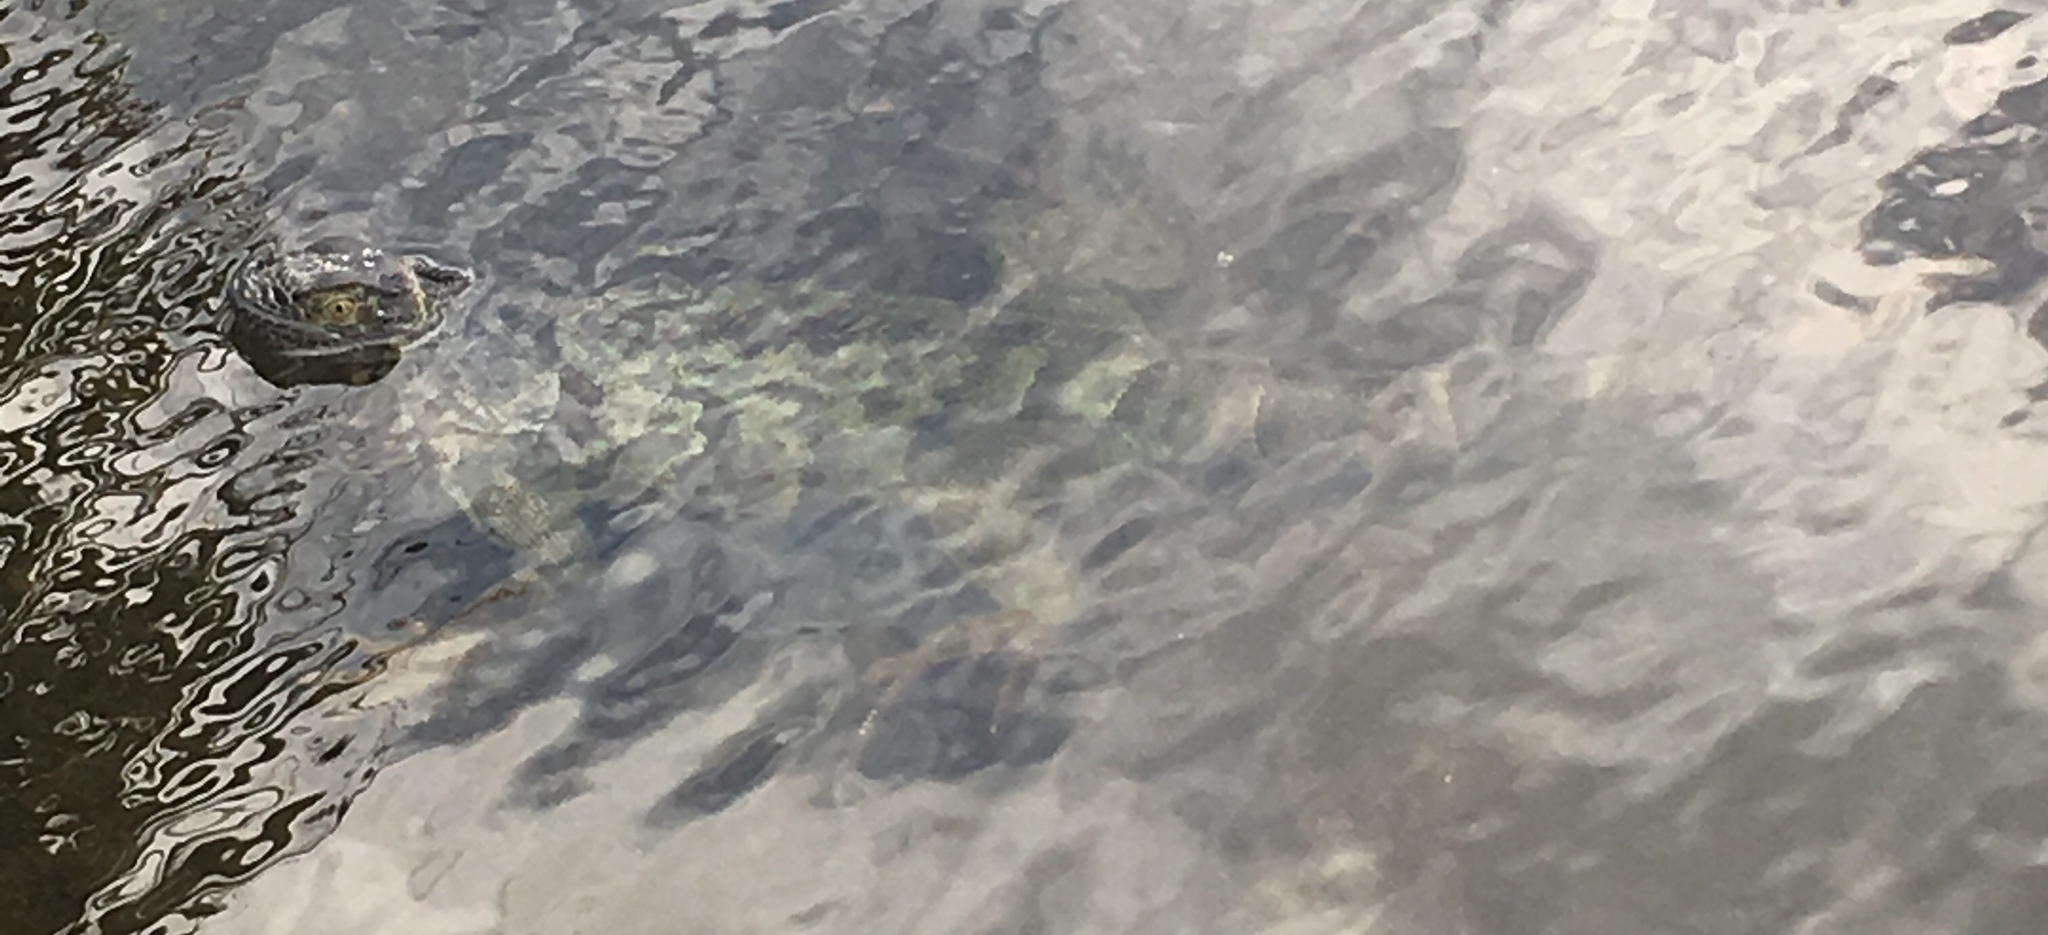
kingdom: Animalia
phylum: Chordata
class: Squamata
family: Iguanidae
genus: Iguana
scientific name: Iguana iguana
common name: Green iguana
